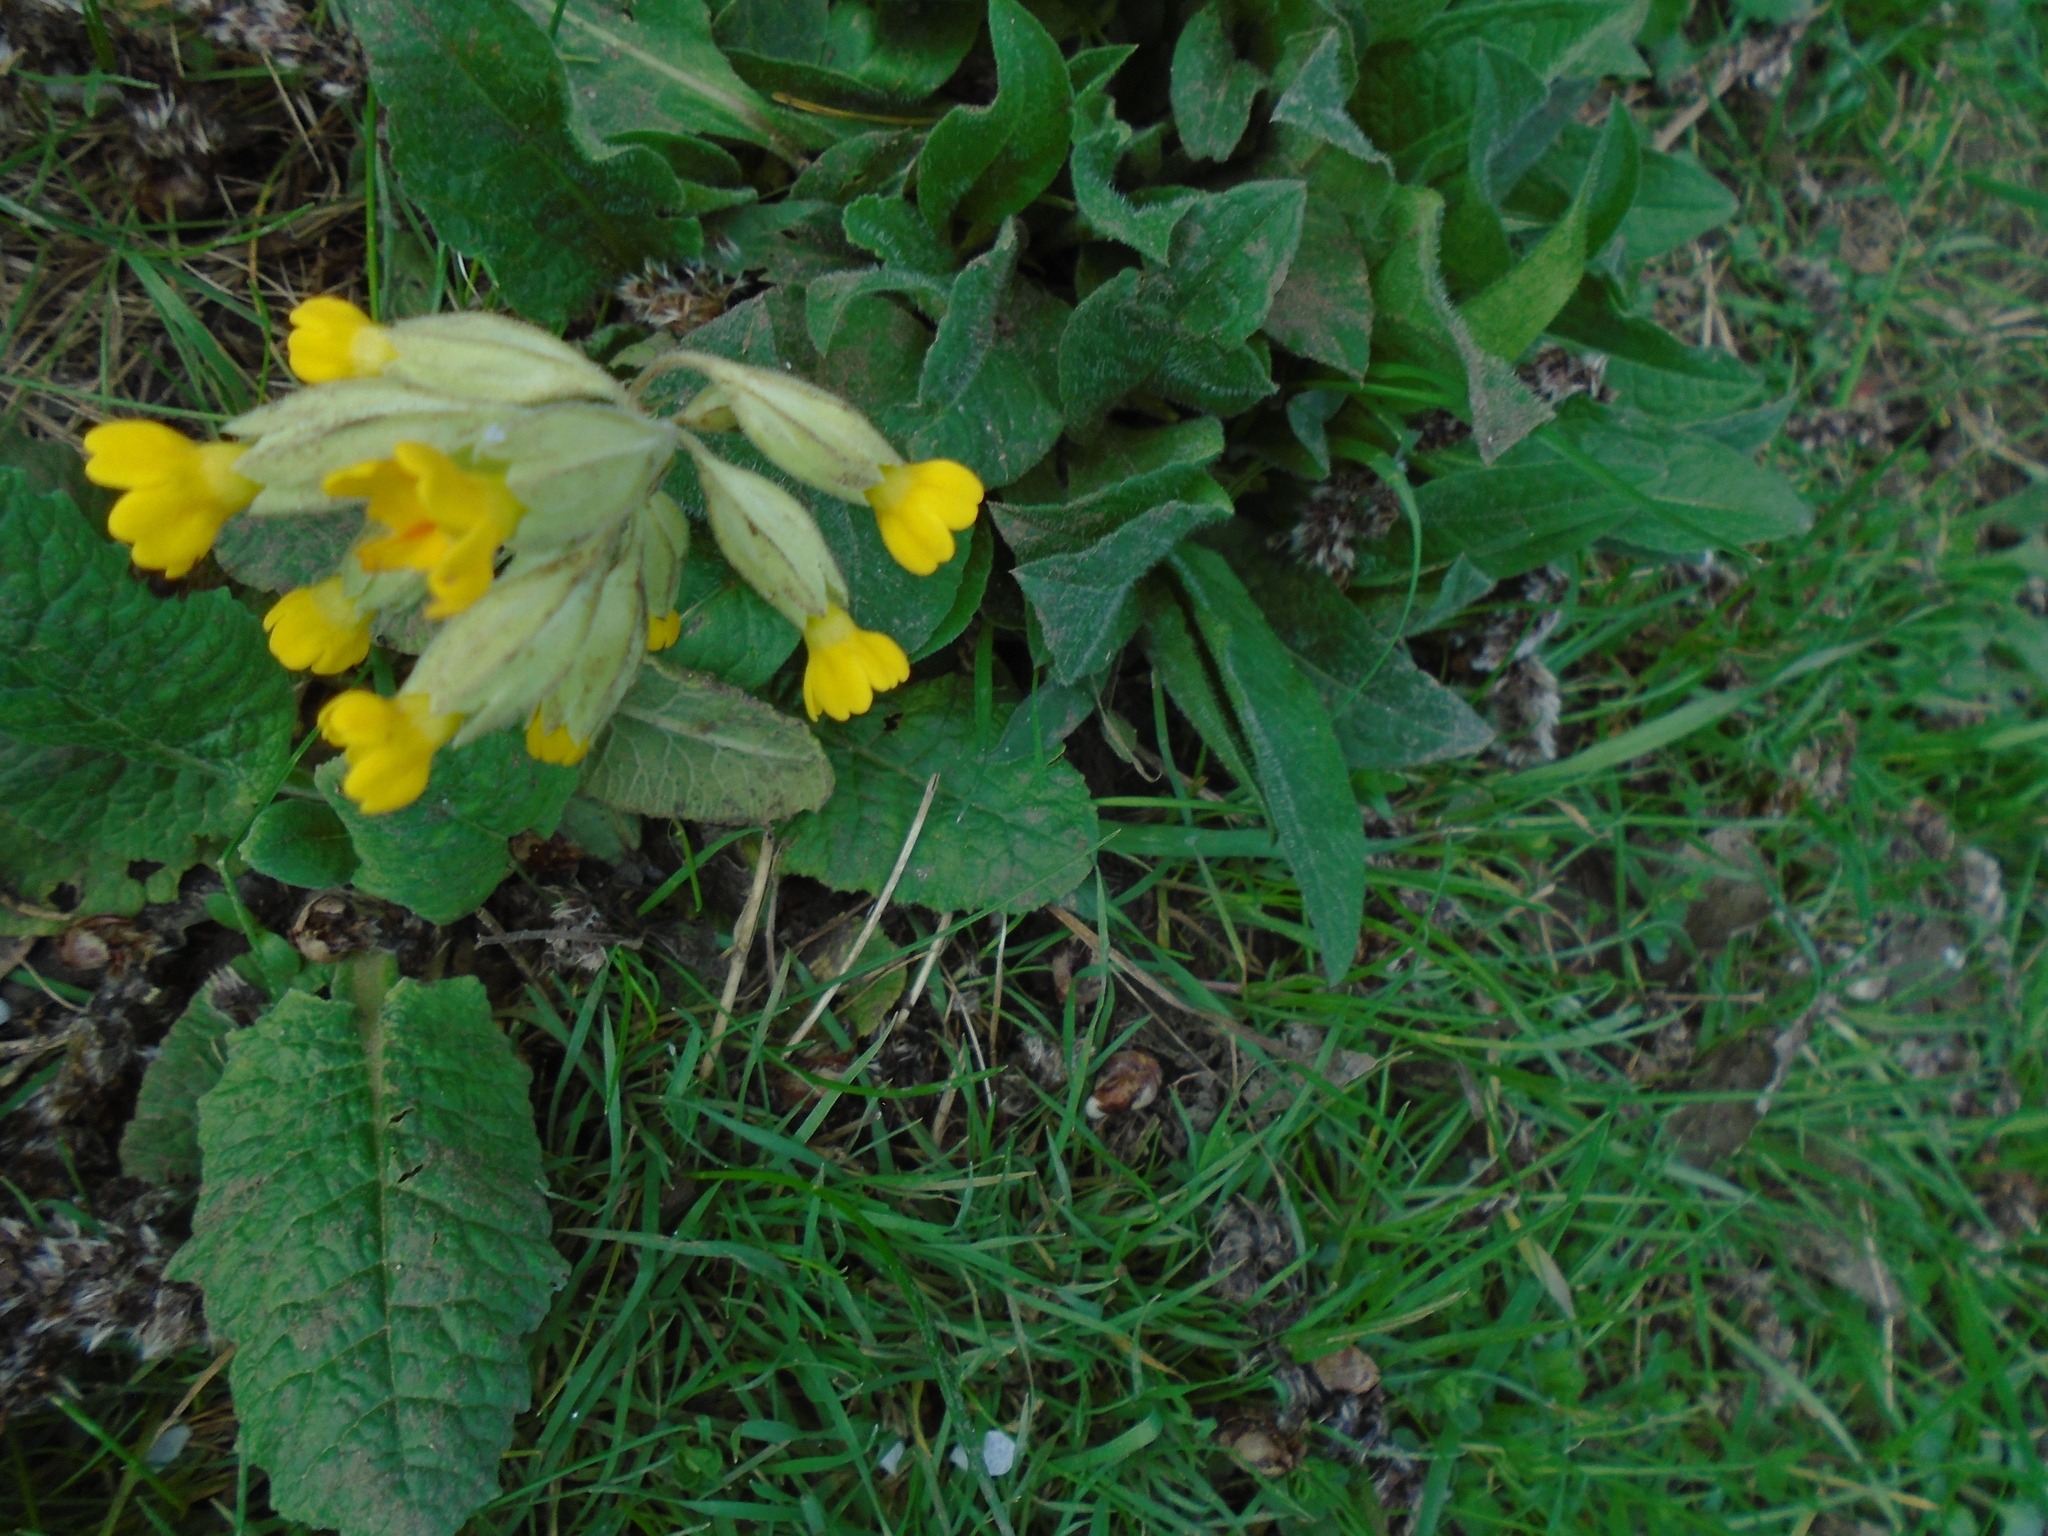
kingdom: Plantae
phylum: Tracheophyta
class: Magnoliopsida
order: Ericales
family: Primulaceae
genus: Primula
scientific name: Primula veris
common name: Cowslip
